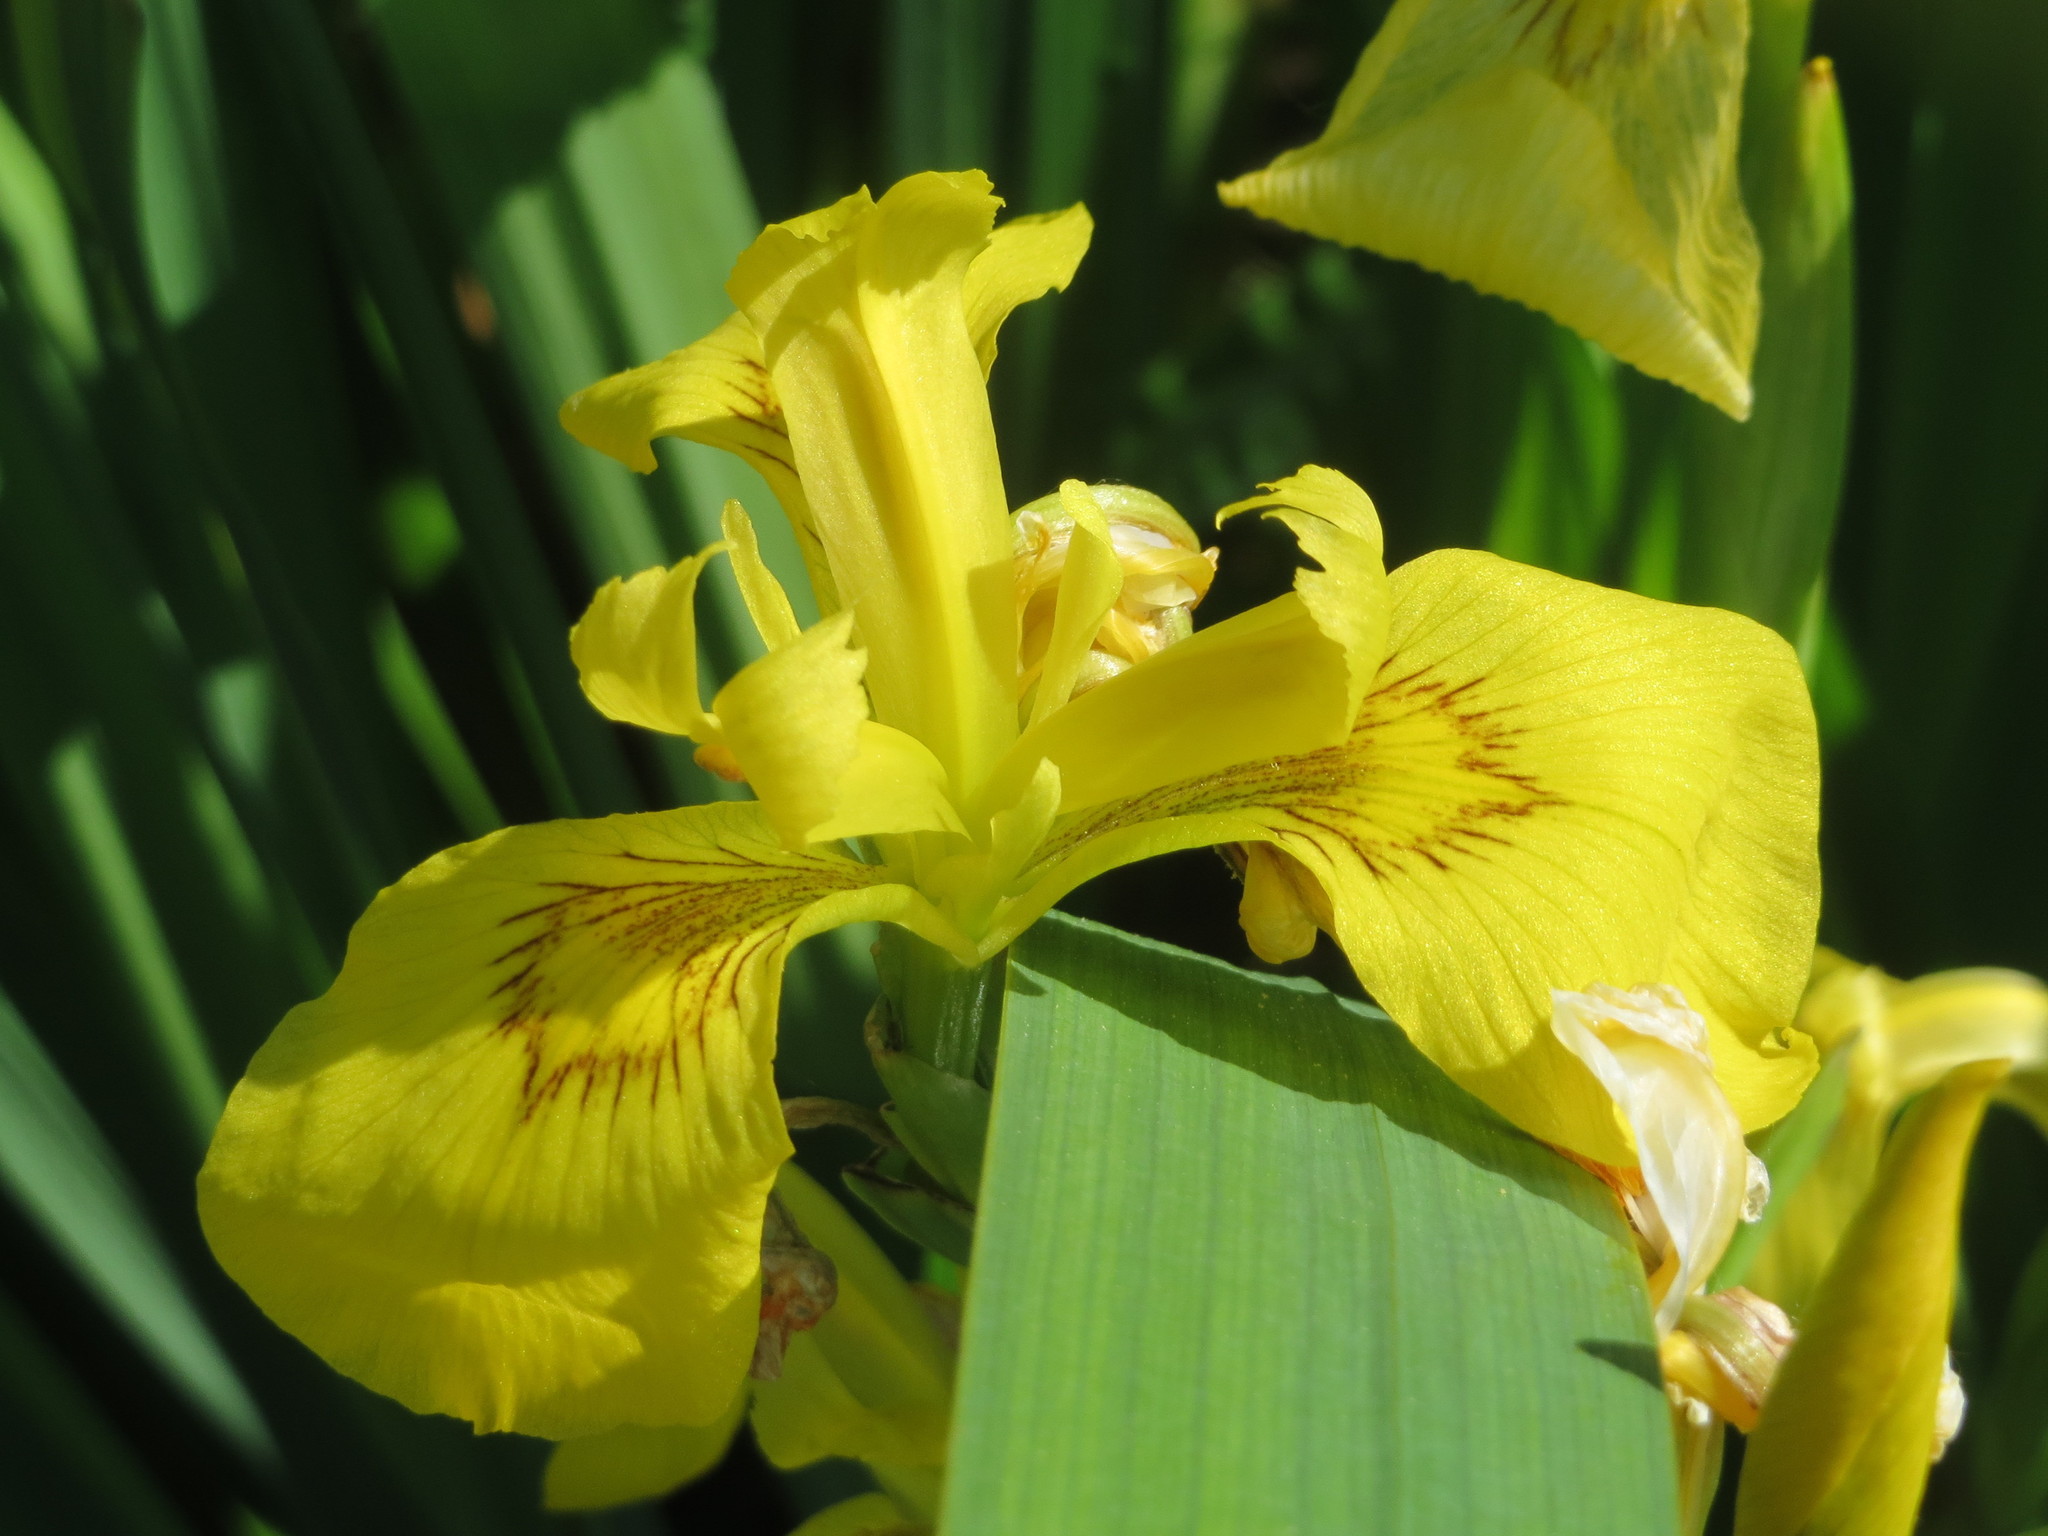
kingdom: Plantae
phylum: Tracheophyta
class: Liliopsida
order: Asparagales
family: Iridaceae
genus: Iris
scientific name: Iris pseudacorus
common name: Yellow flag
